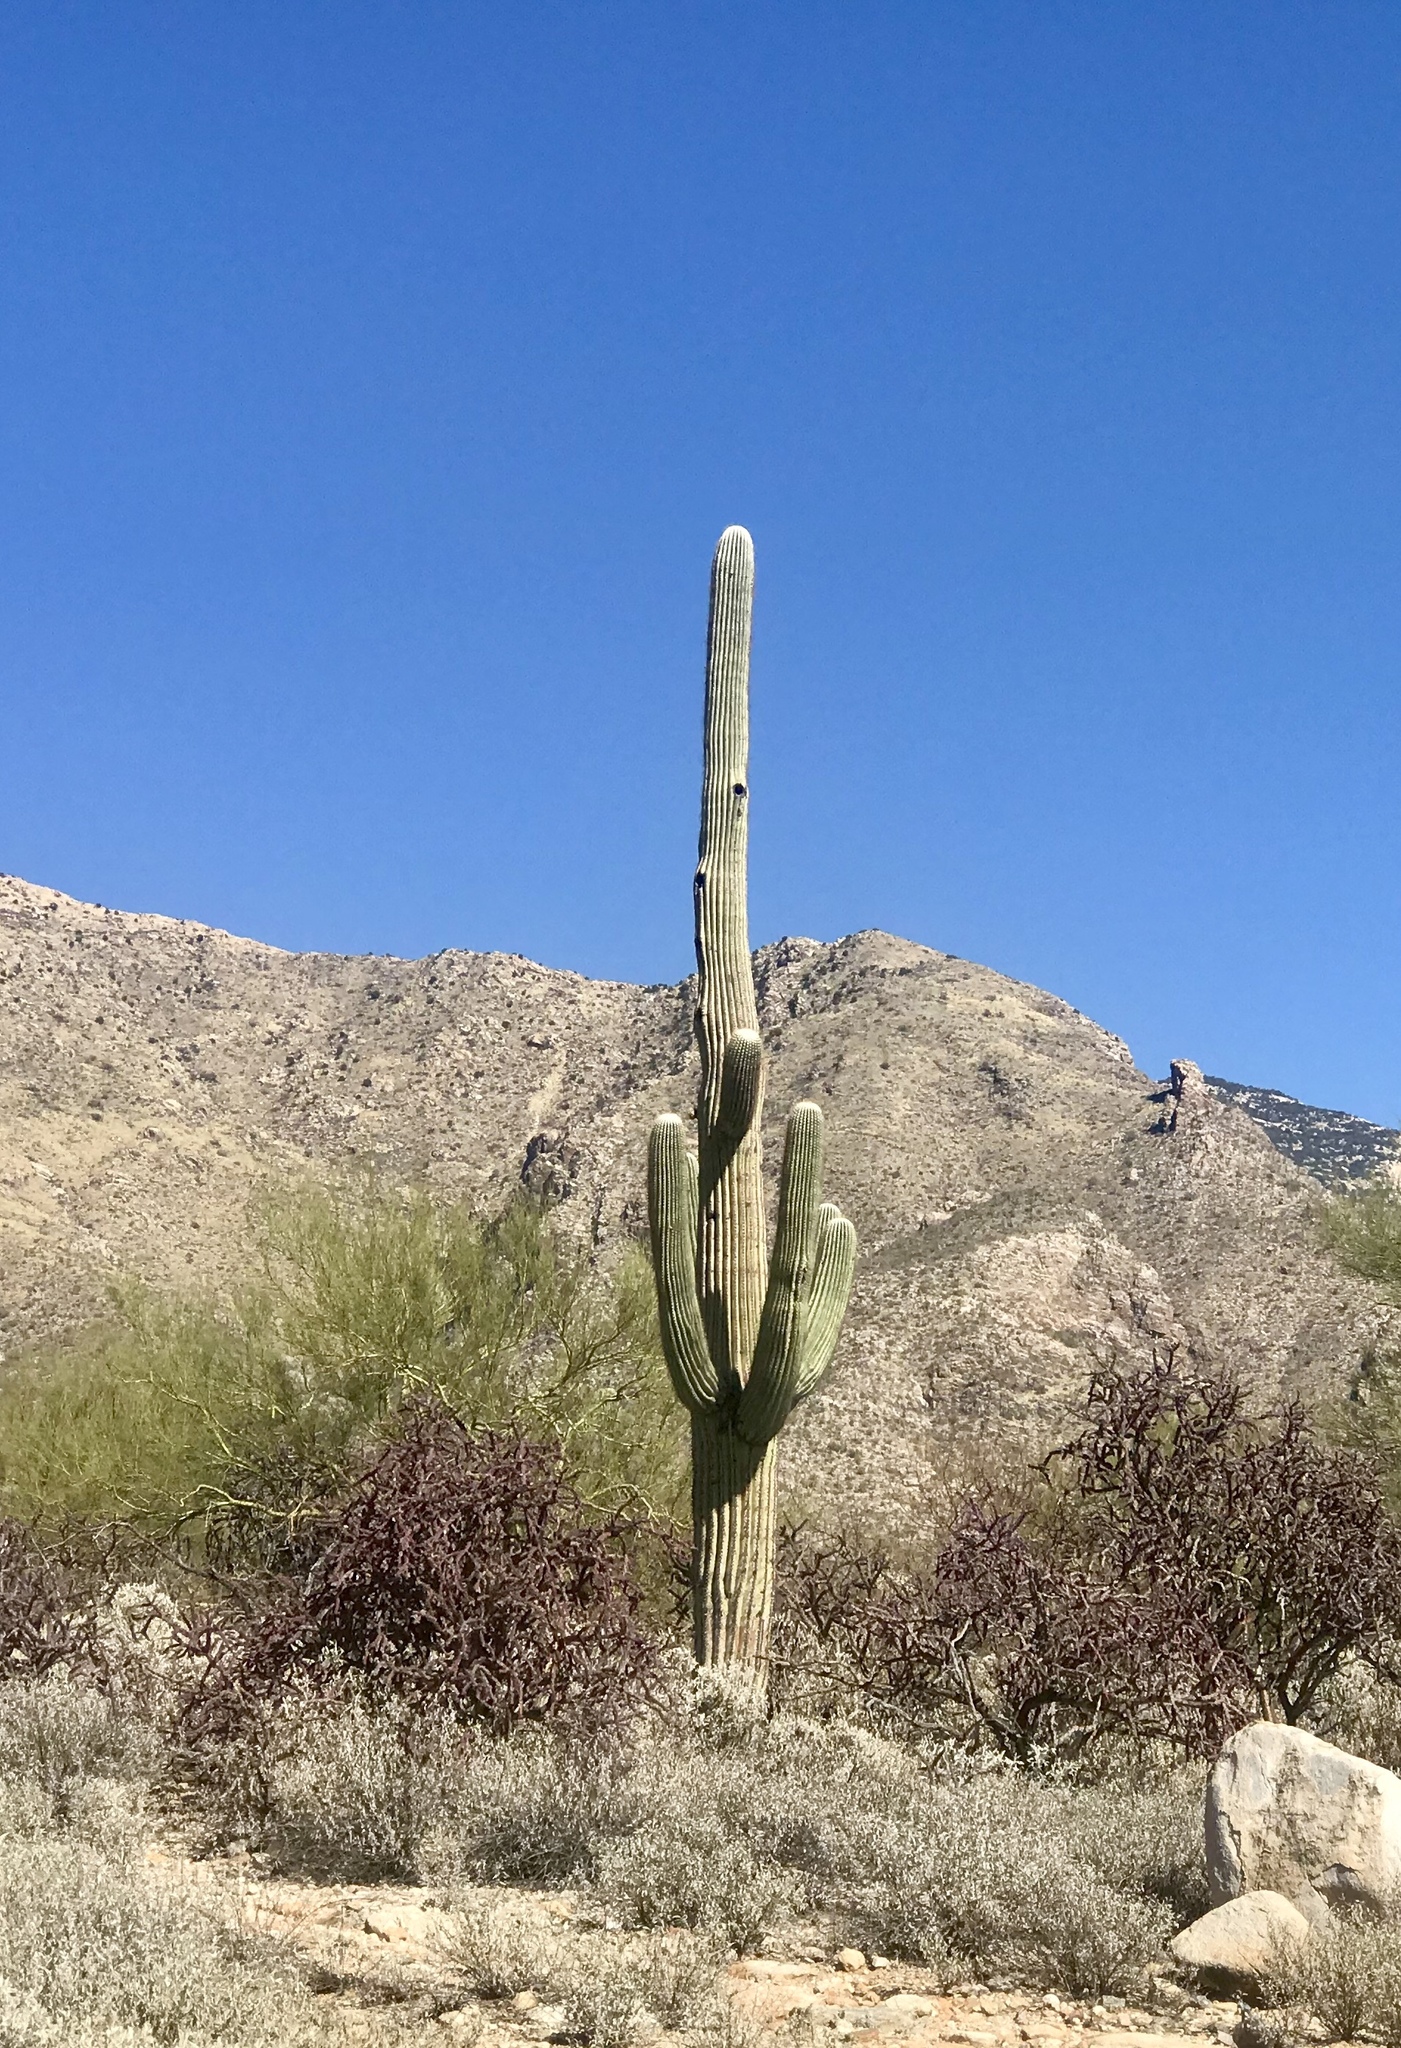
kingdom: Plantae
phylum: Tracheophyta
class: Magnoliopsida
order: Caryophyllales
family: Cactaceae
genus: Carnegiea
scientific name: Carnegiea gigantea
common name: Saguaro
